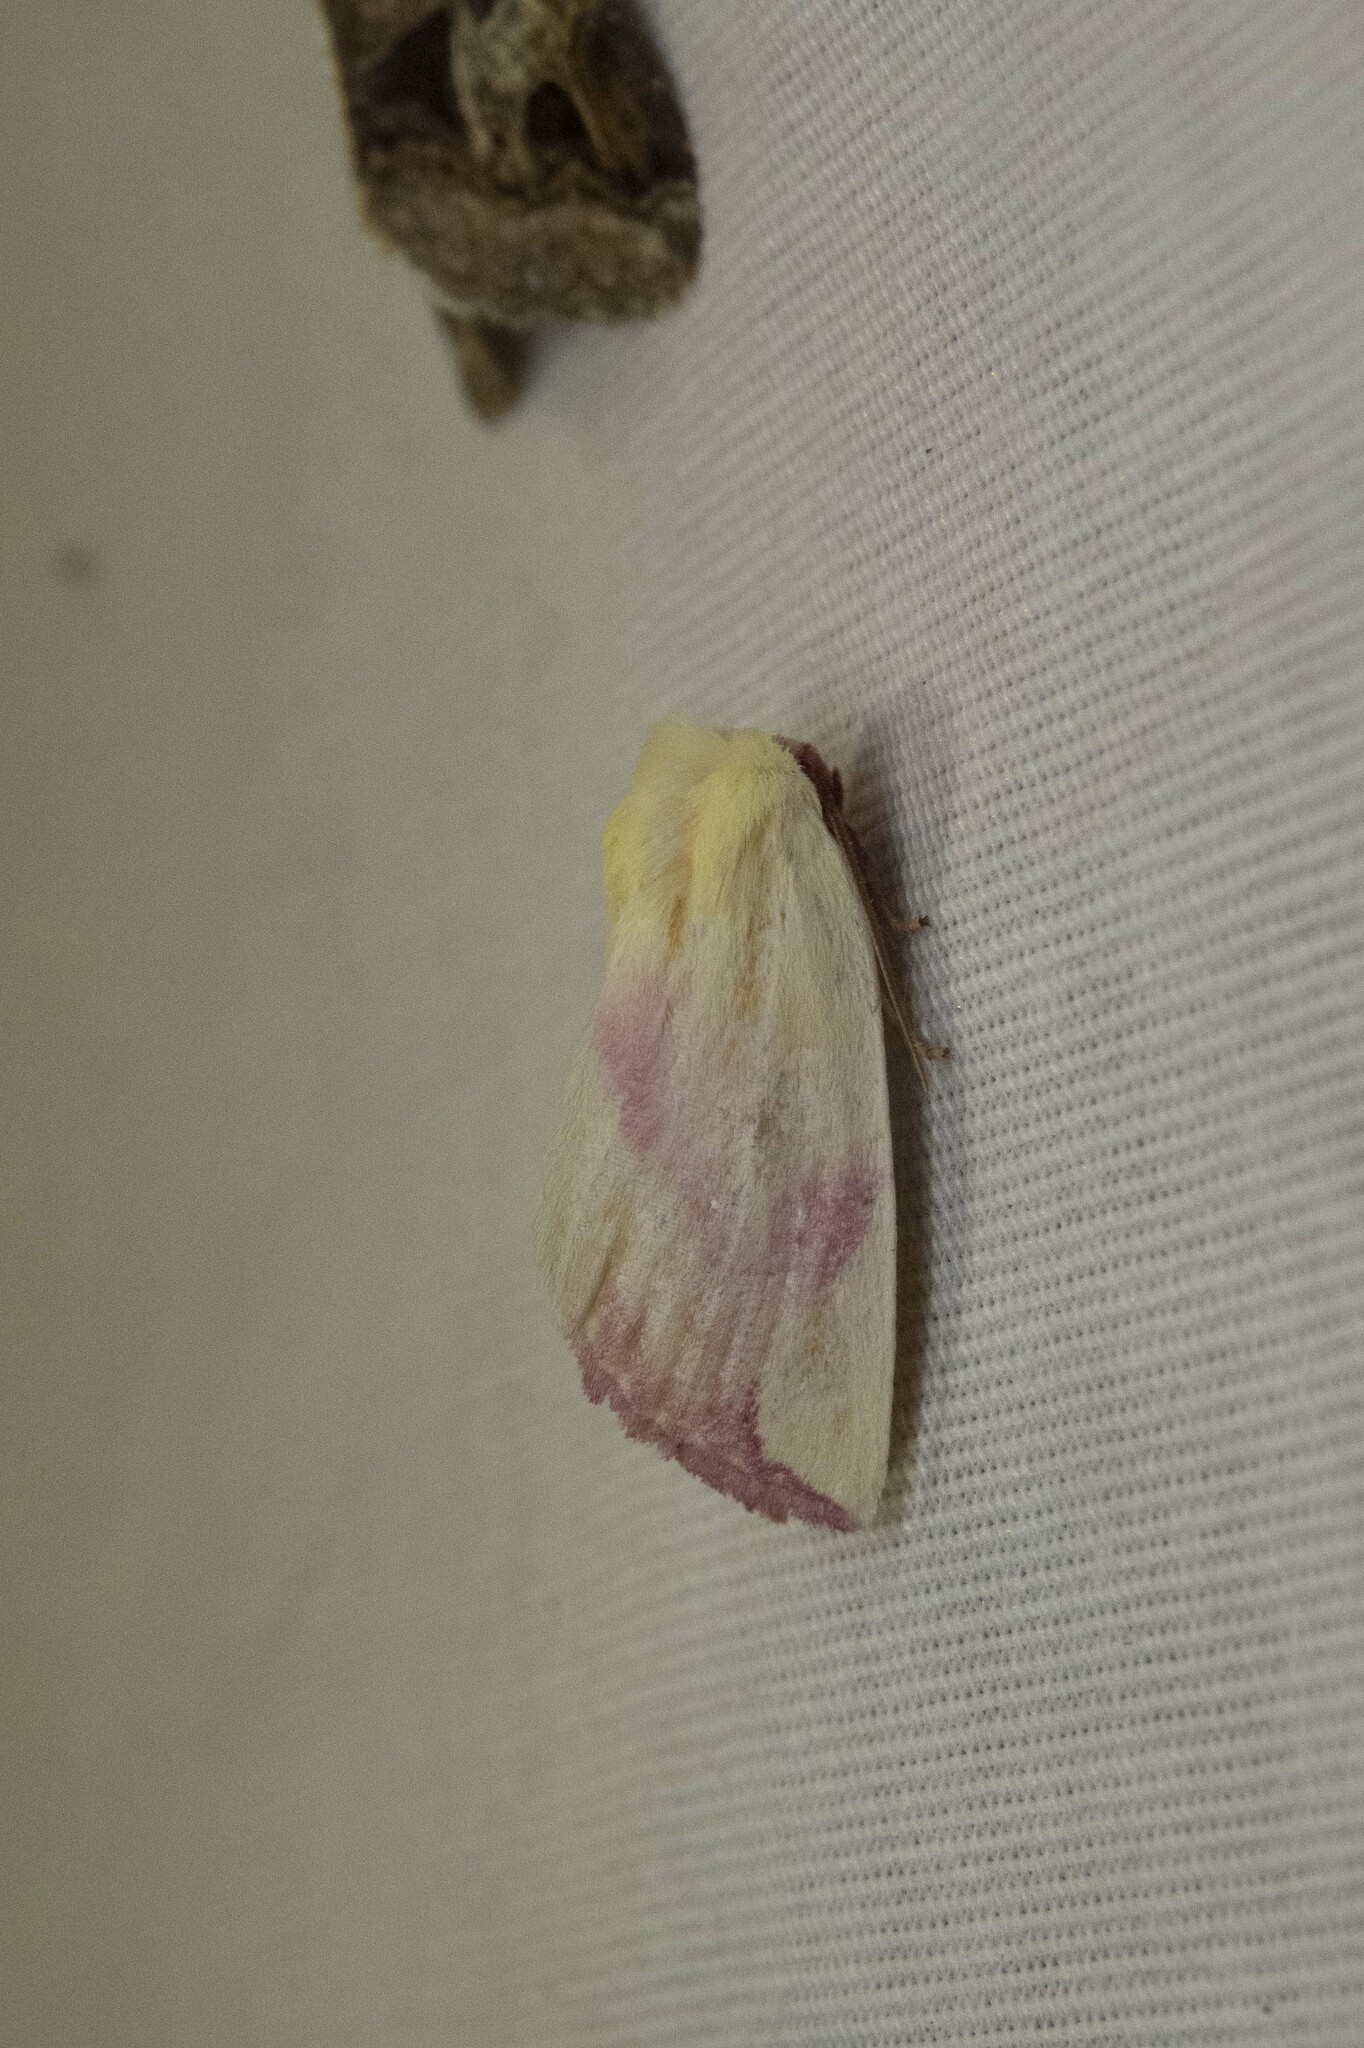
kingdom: Animalia
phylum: Arthropoda
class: Insecta
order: Lepidoptera
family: Noctuidae
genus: Thurberiphaga
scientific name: Thurberiphaga diffusa
